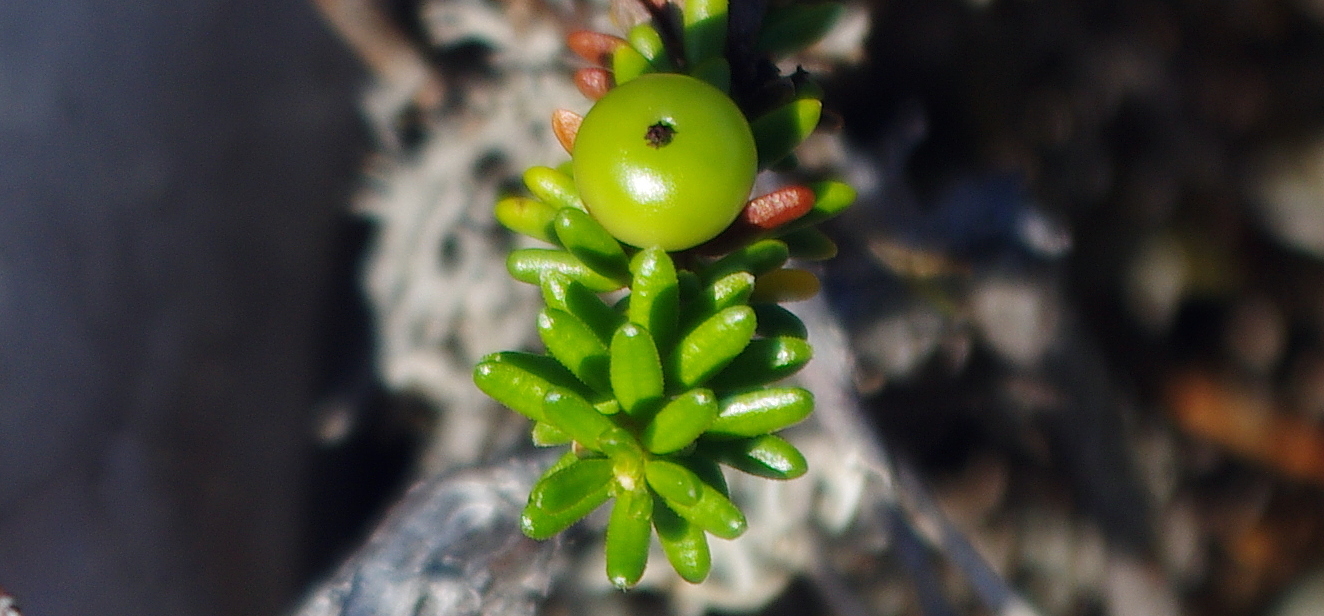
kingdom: Plantae
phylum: Tracheophyta
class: Magnoliopsida
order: Ericales
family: Ericaceae
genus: Empetrum
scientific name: Empetrum nigrum
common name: Black crowberry
